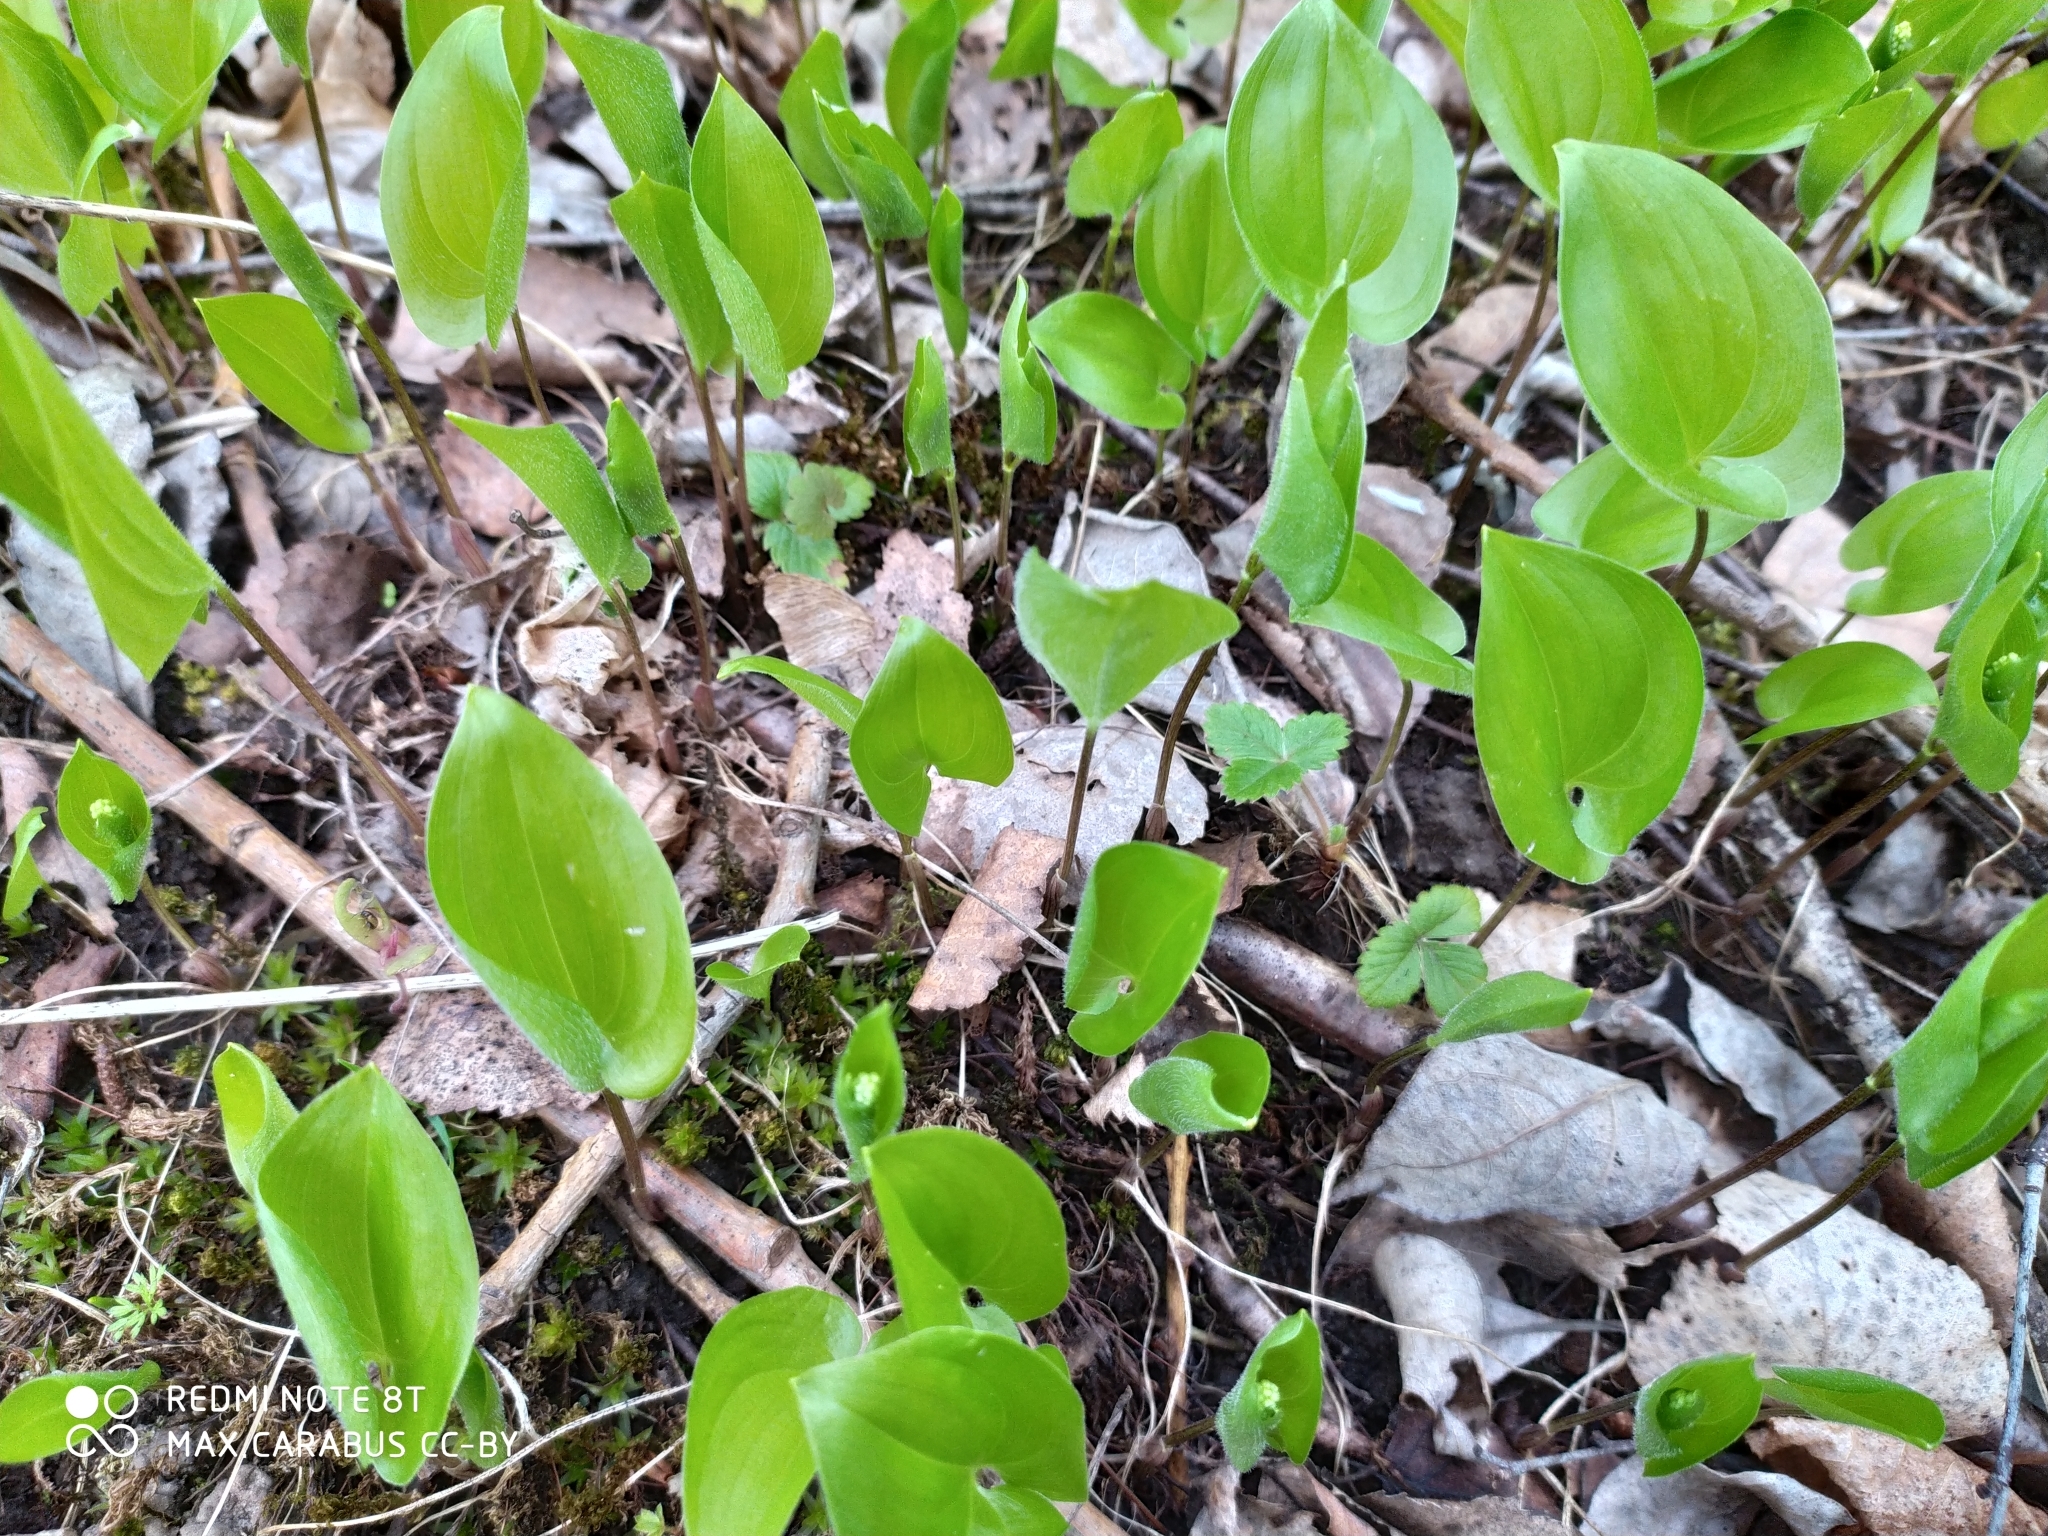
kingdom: Plantae
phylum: Tracheophyta
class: Liliopsida
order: Asparagales
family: Asparagaceae
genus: Maianthemum
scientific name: Maianthemum bifolium
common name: May lily
